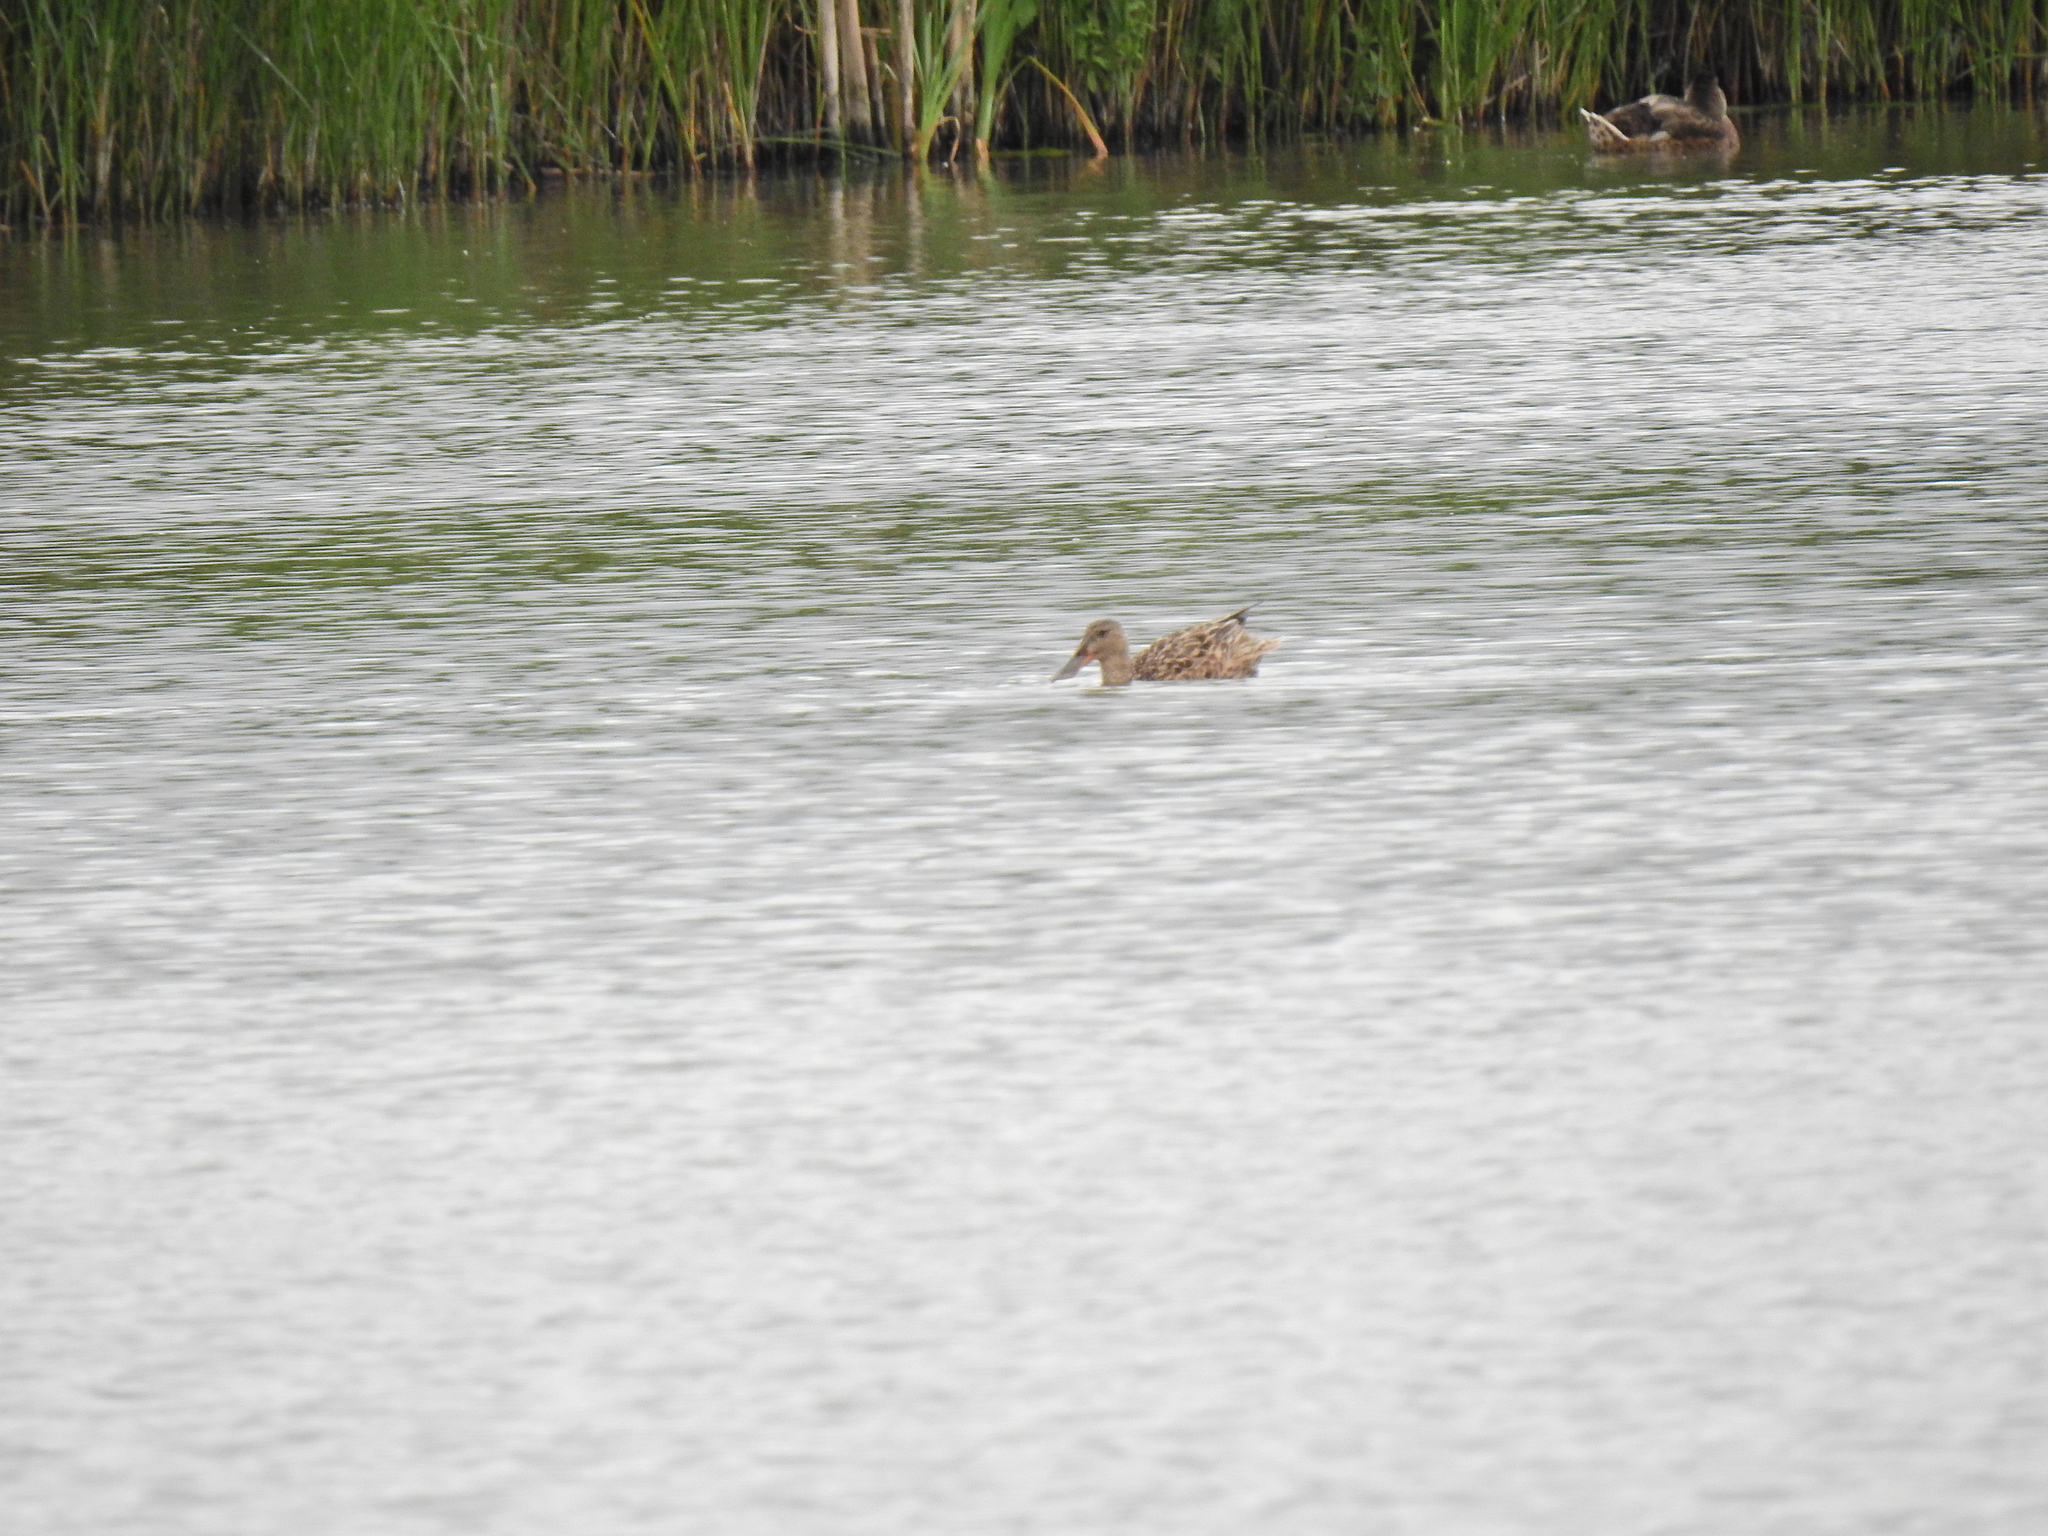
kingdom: Animalia
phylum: Chordata
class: Aves
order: Anseriformes
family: Anatidae
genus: Spatula
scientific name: Spatula clypeata
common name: Northern shoveler
